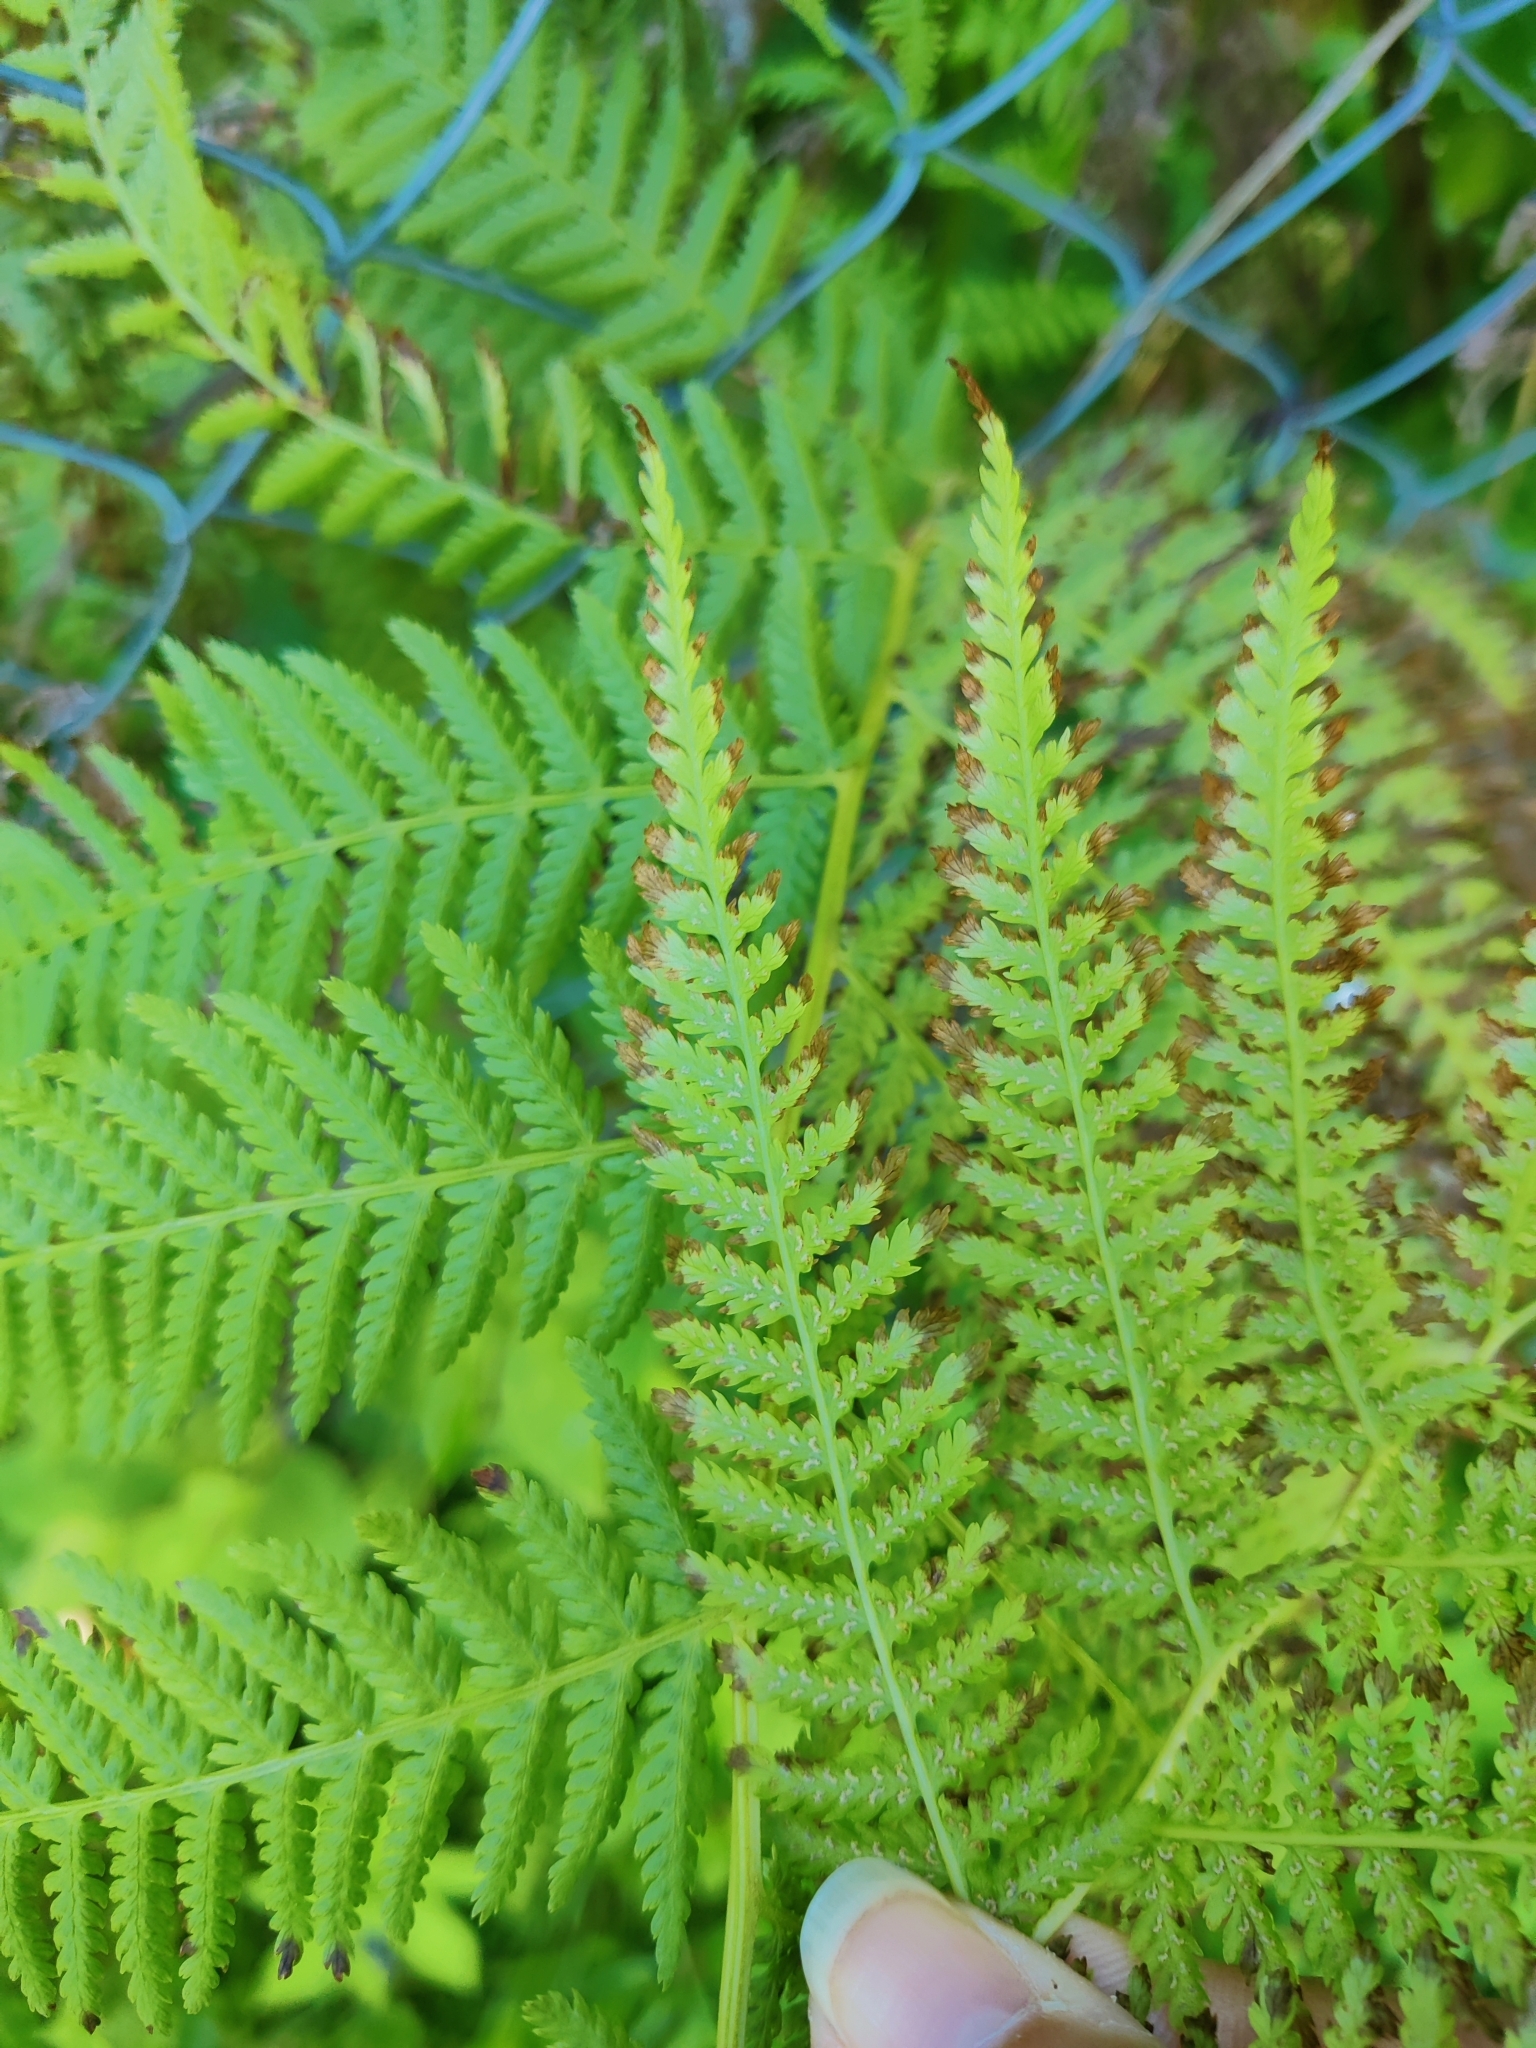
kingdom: Plantae
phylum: Tracheophyta
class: Polypodiopsida
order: Polypodiales
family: Athyriaceae
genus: Athyrium
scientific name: Athyrium filix-femina
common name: Lady fern
